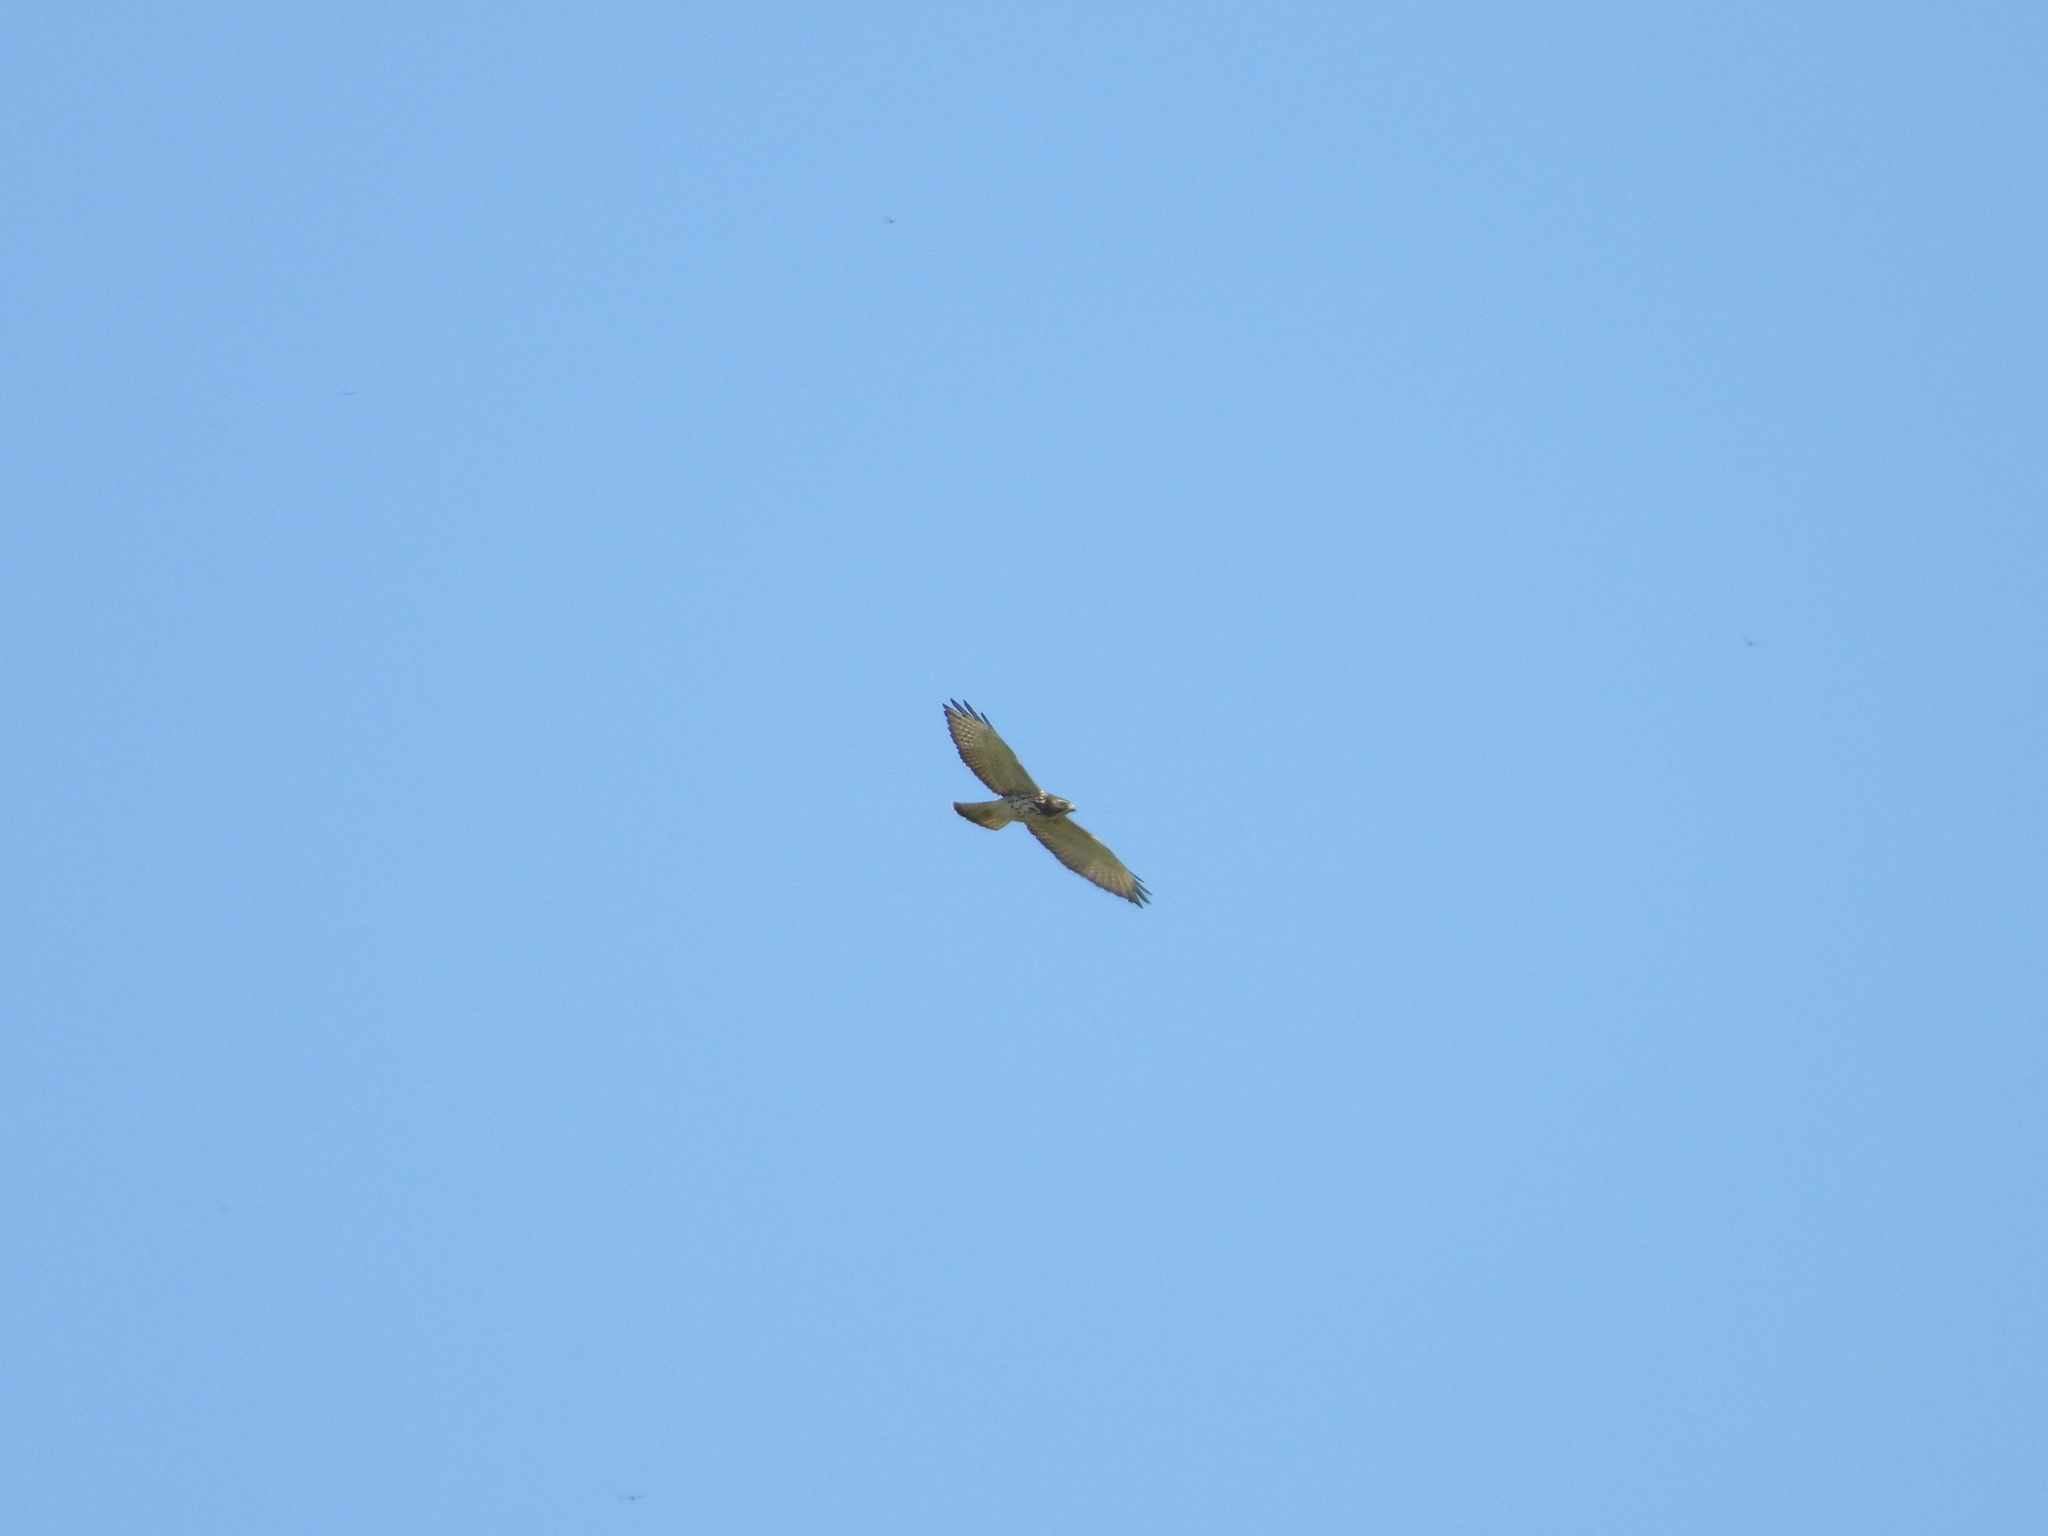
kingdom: Animalia
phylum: Chordata
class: Aves
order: Accipitriformes
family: Accipitridae
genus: Buteo
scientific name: Buteo jamaicensis
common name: Red-tailed hawk
